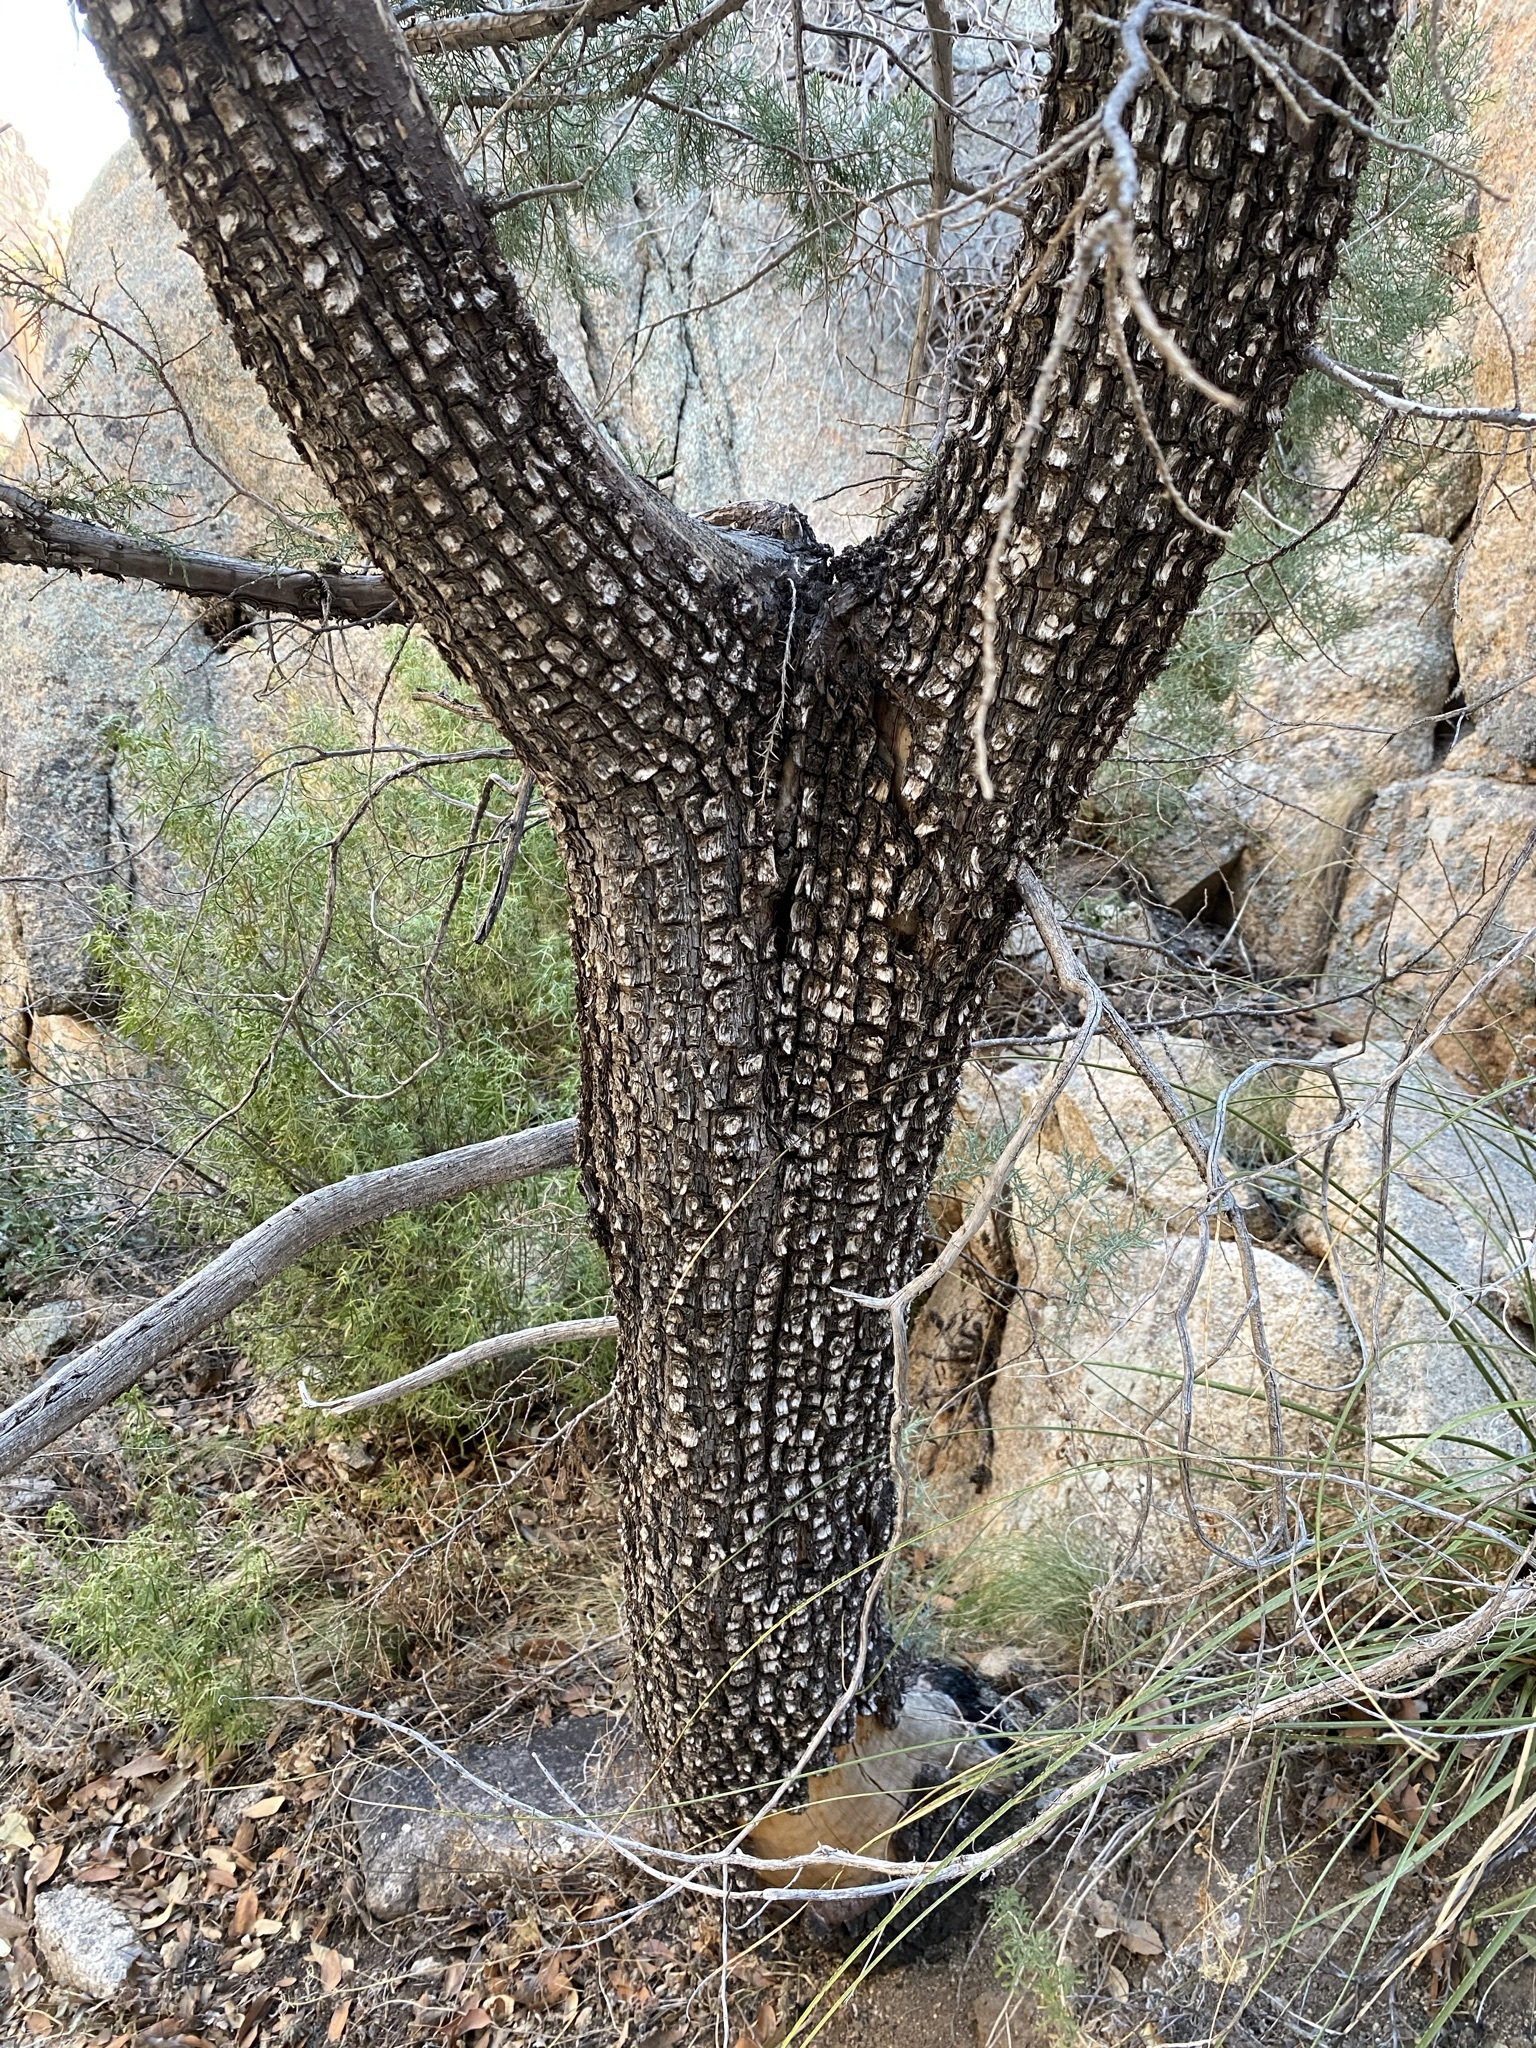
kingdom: Plantae
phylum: Tracheophyta
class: Pinopsida
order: Pinales
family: Cupressaceae
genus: Juniperus
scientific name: Juniperus deppeana
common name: Alligator juniper
